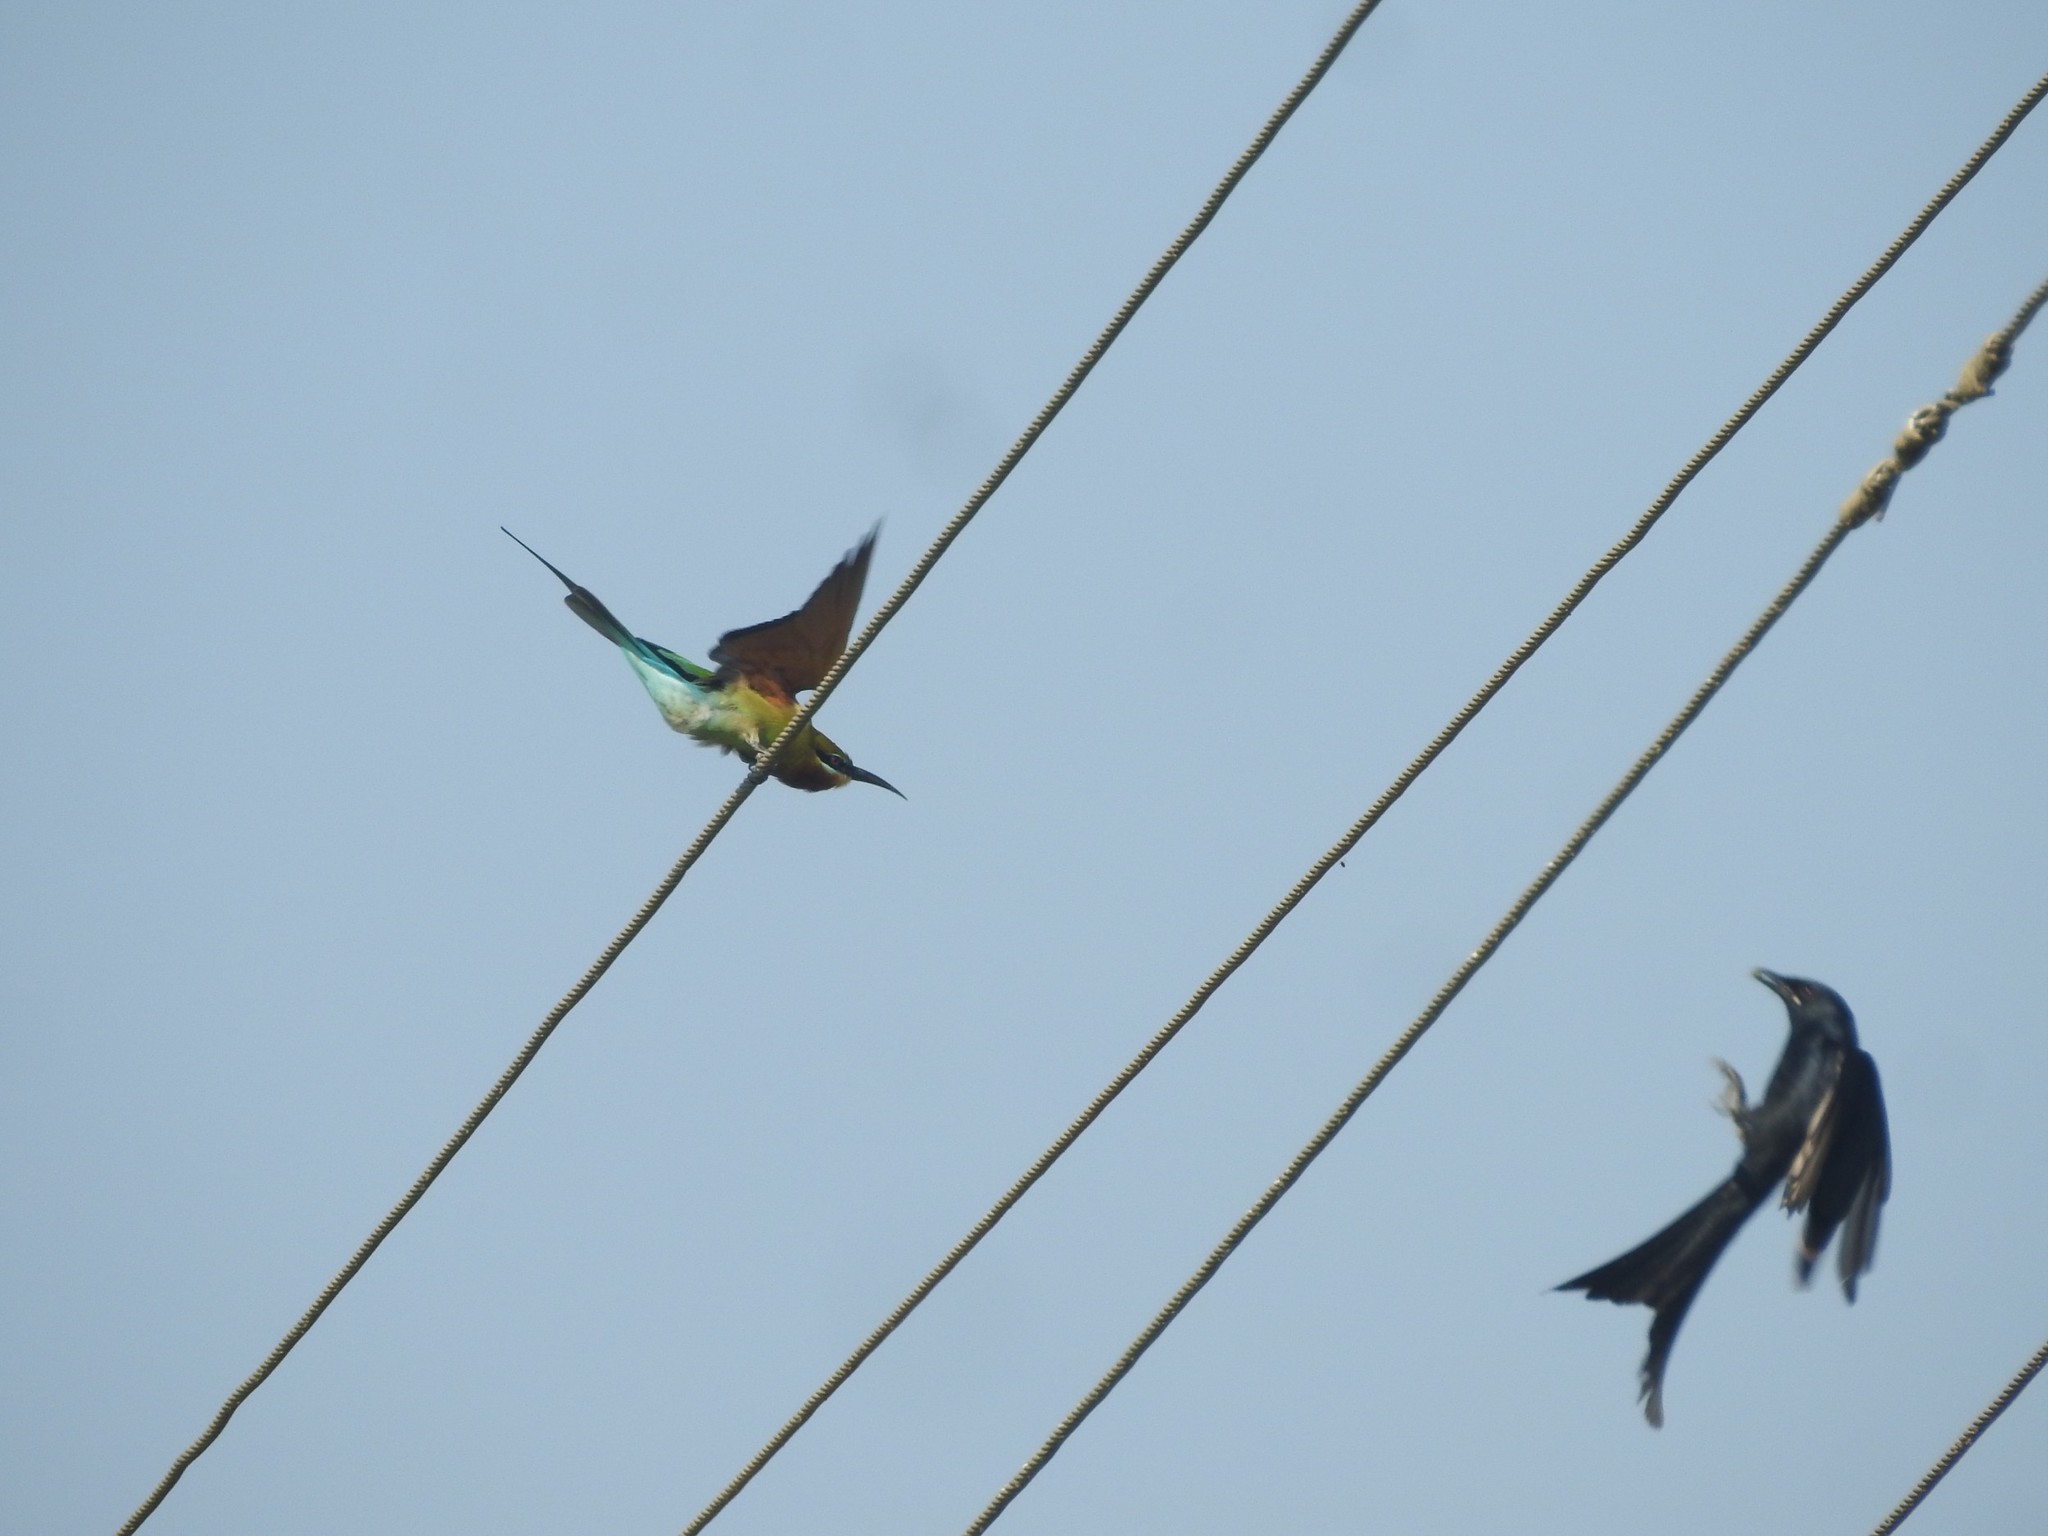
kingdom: Animalia
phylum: Chordata
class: Aves
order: Coraciiformes
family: Meropidae
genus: Merops
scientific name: Merops philippinus
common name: Blue-tailed bee-eater
